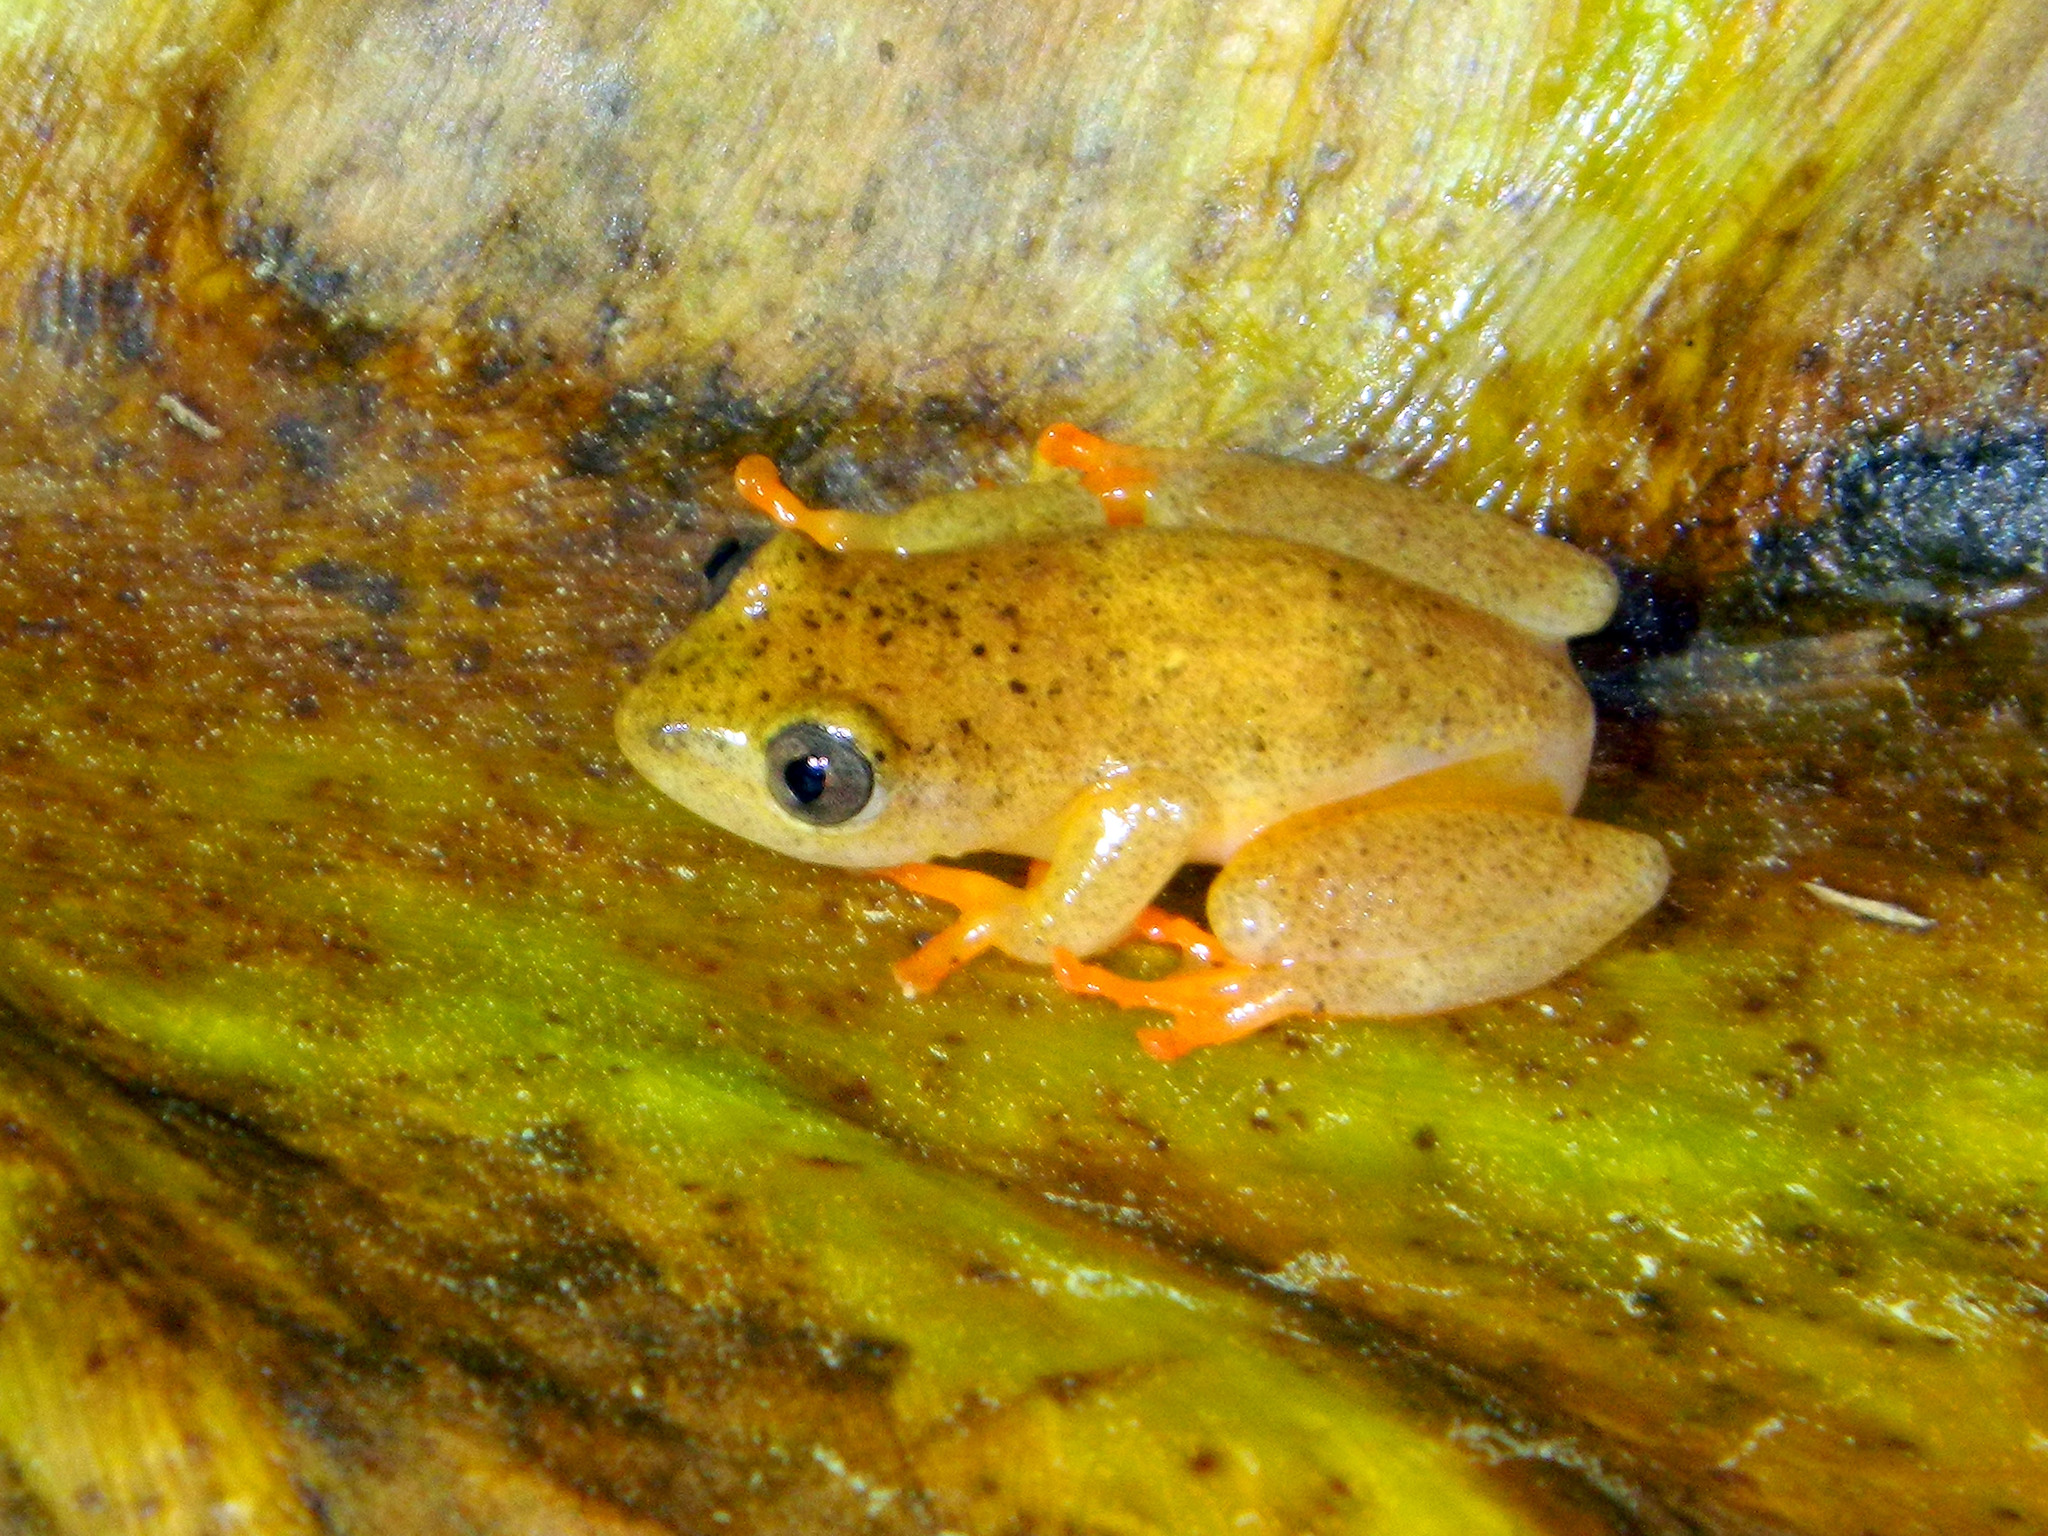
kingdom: Animalia
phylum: Chordata
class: Amphibia
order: Anura
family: Hyperoliidae
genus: Heterixalus
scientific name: Heterixalus alboguttatus
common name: Whitebelly reed frog
